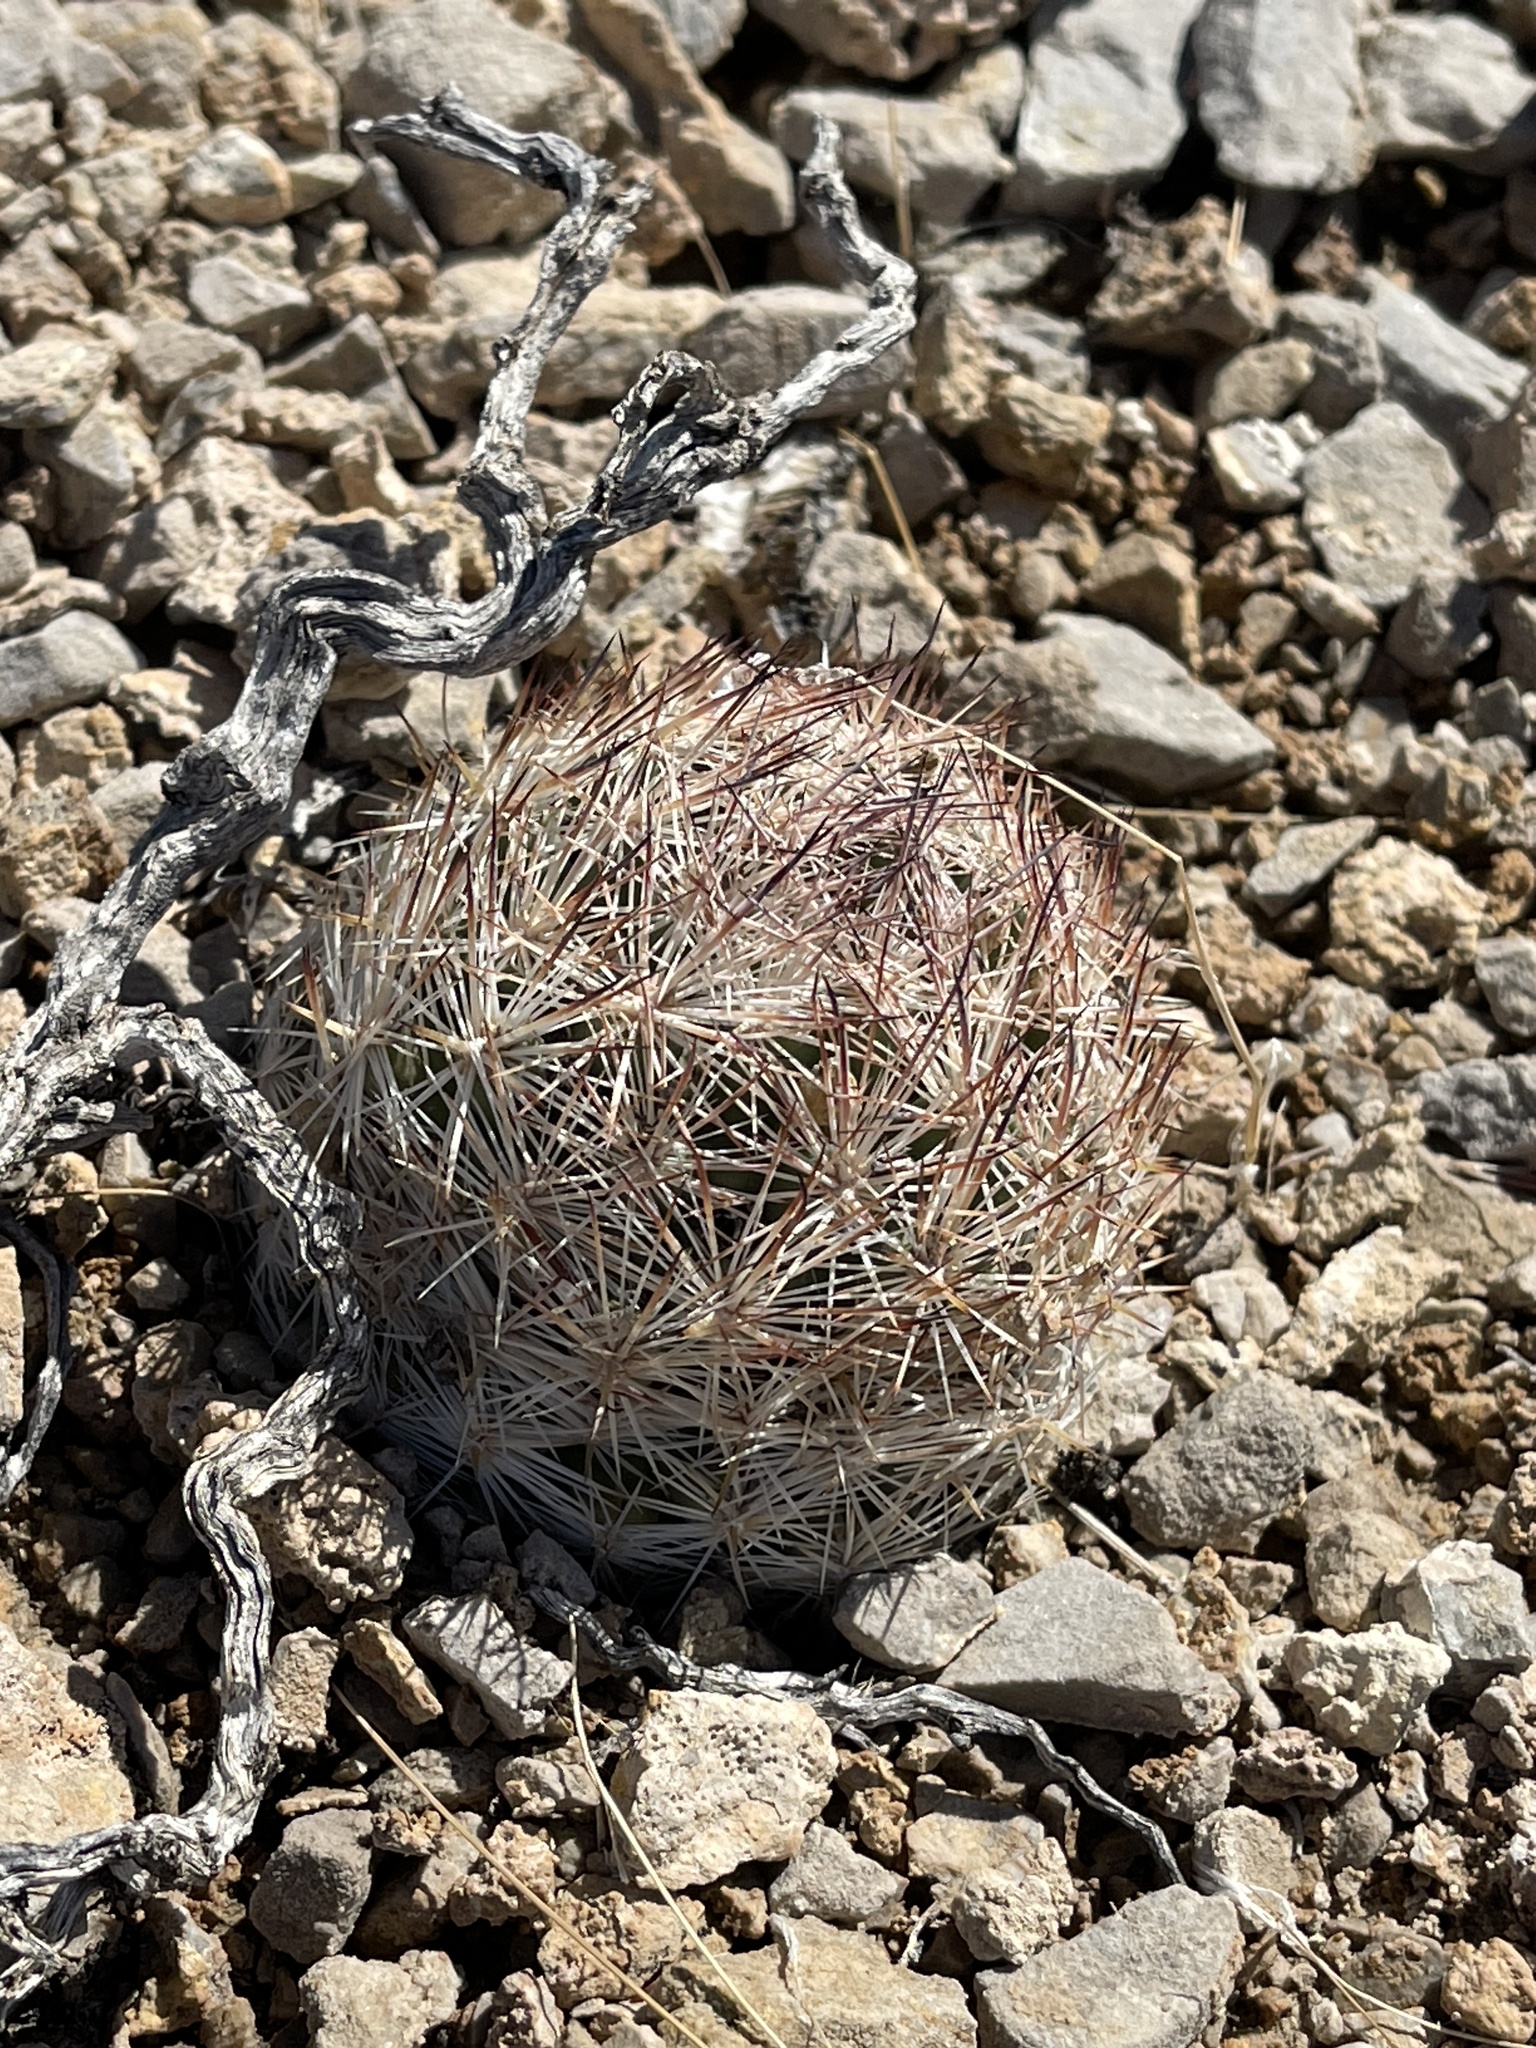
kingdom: Plantae
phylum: Tracheophyta
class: Magnoliopsida
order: Caryophyllales
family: Cactaceae
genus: Pelecyphora
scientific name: Pelecyphora dasyacantha
